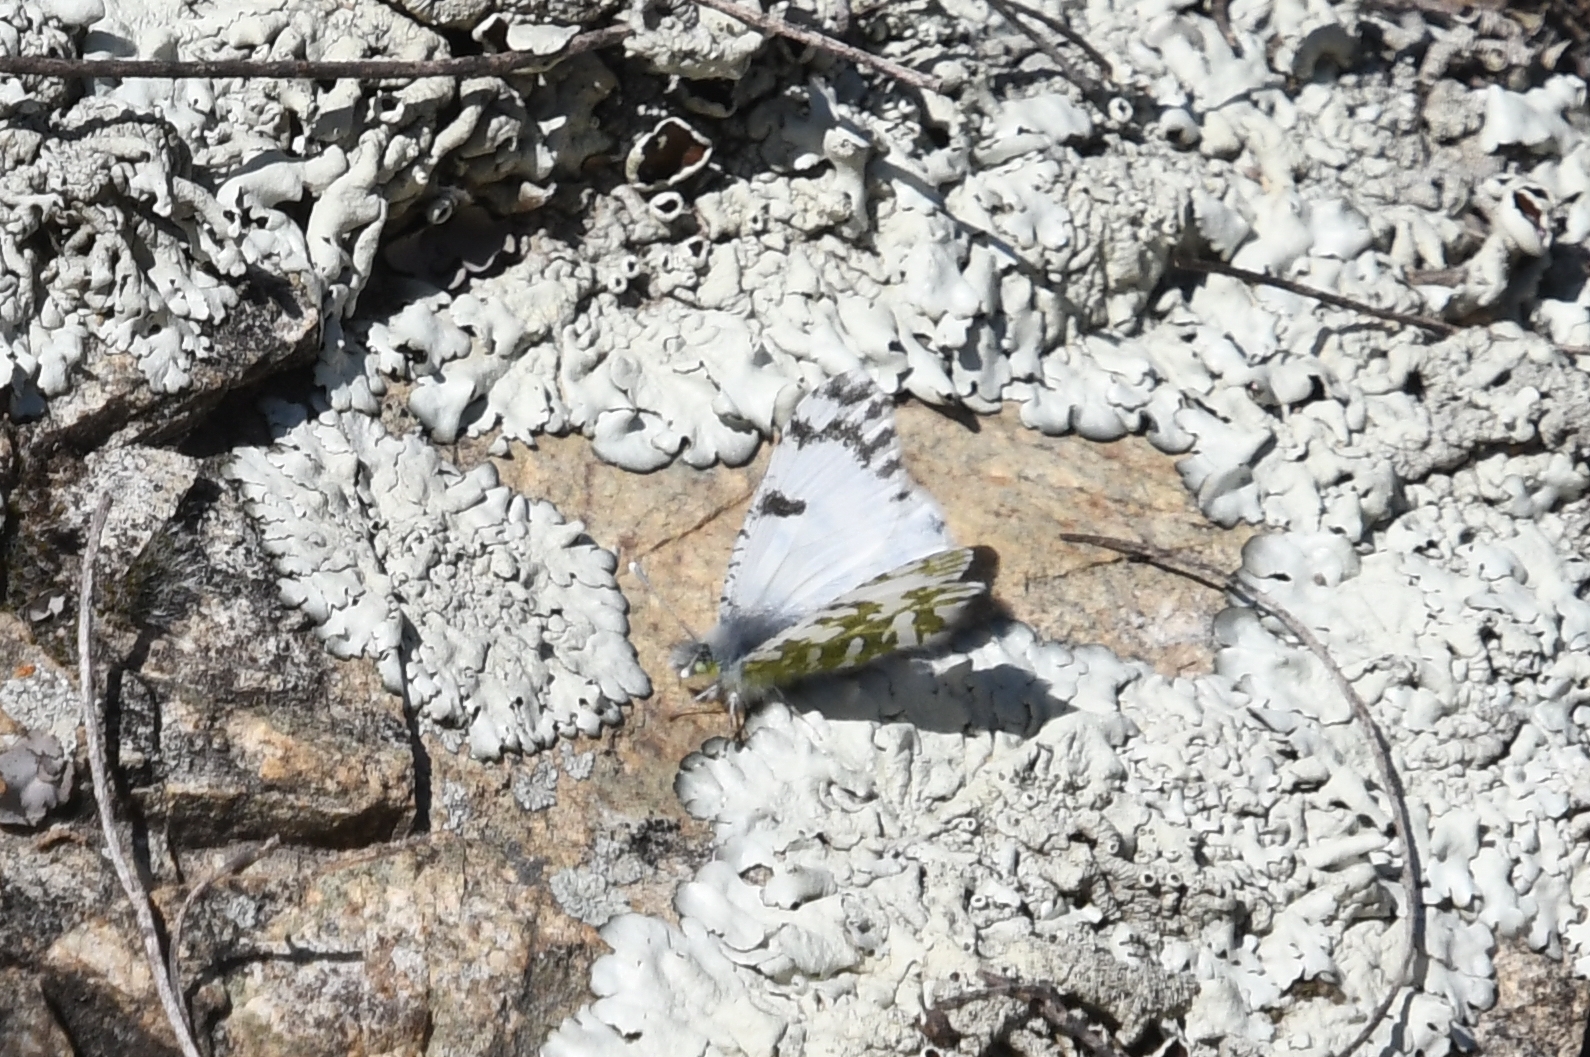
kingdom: Animalia
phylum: Arthropoda
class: Insecta
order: Lepidoptera
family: Pieridae
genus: Euchloe
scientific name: Euchloe lotta
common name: Desert marble
